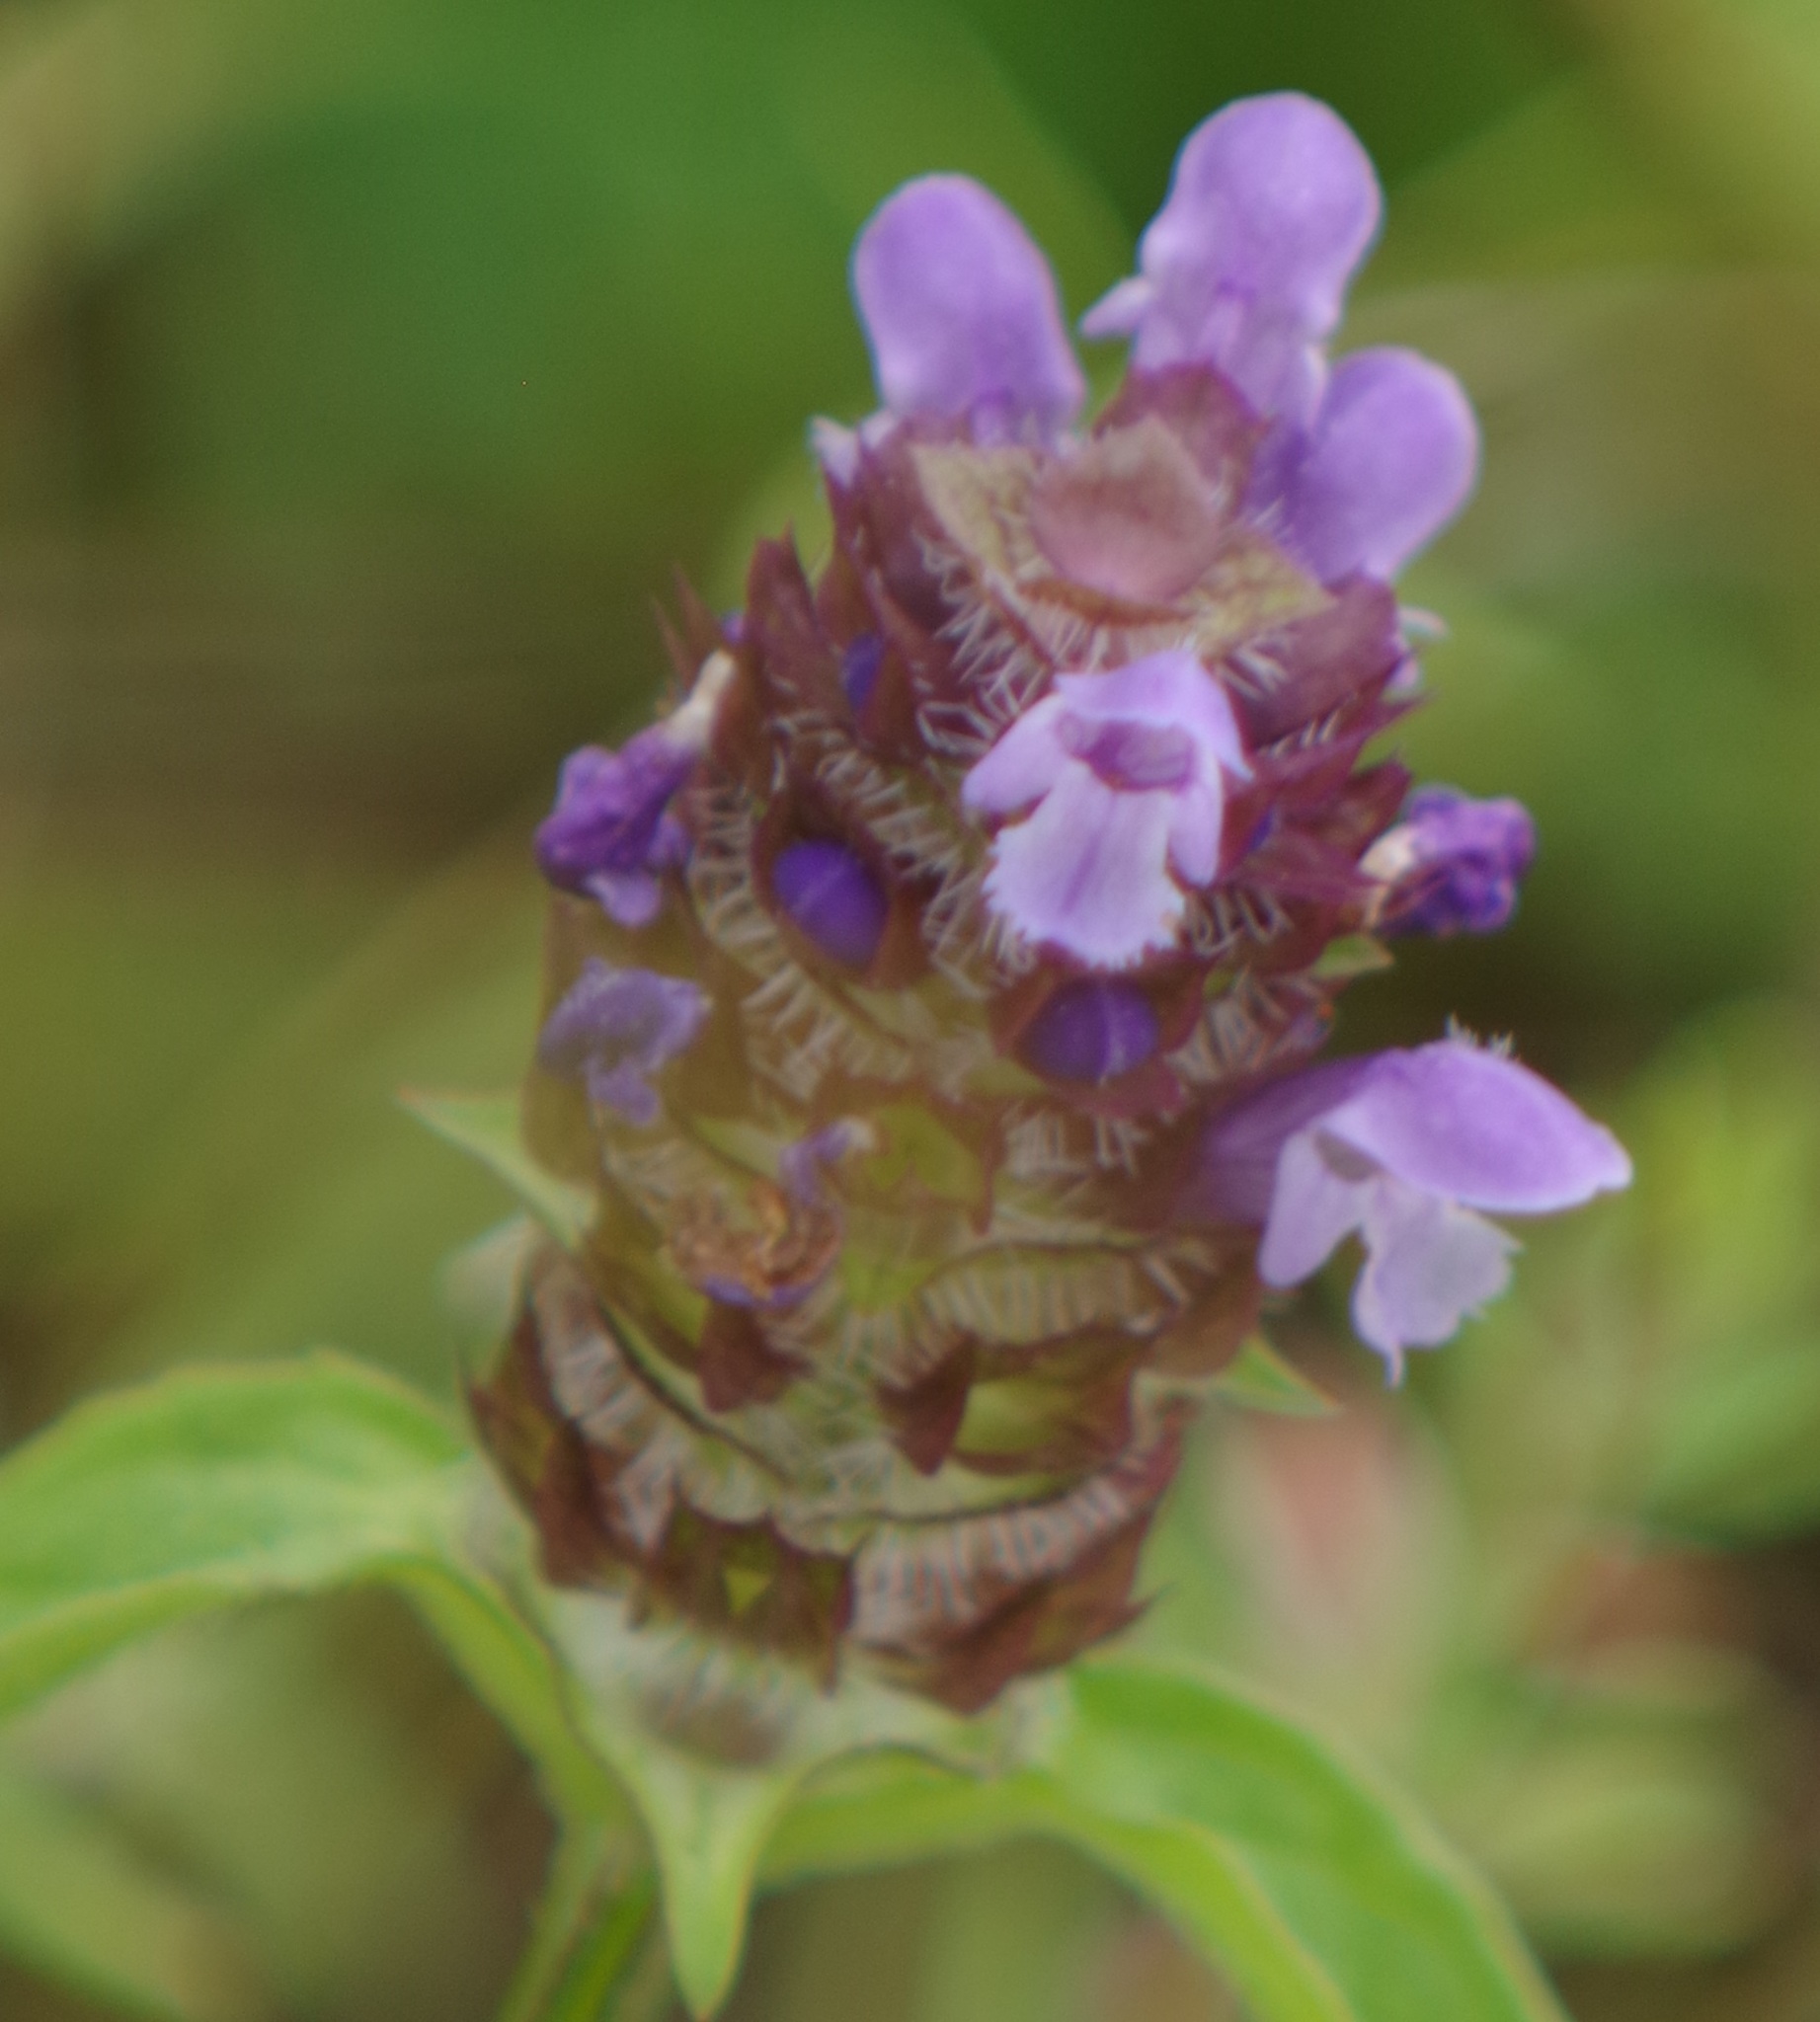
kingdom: Plantae
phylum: Tracheophyta
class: Magnoliopsida
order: Lamiales
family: Lamiaceae
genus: Prunella
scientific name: Prunella vulgaris
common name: Heal-all
